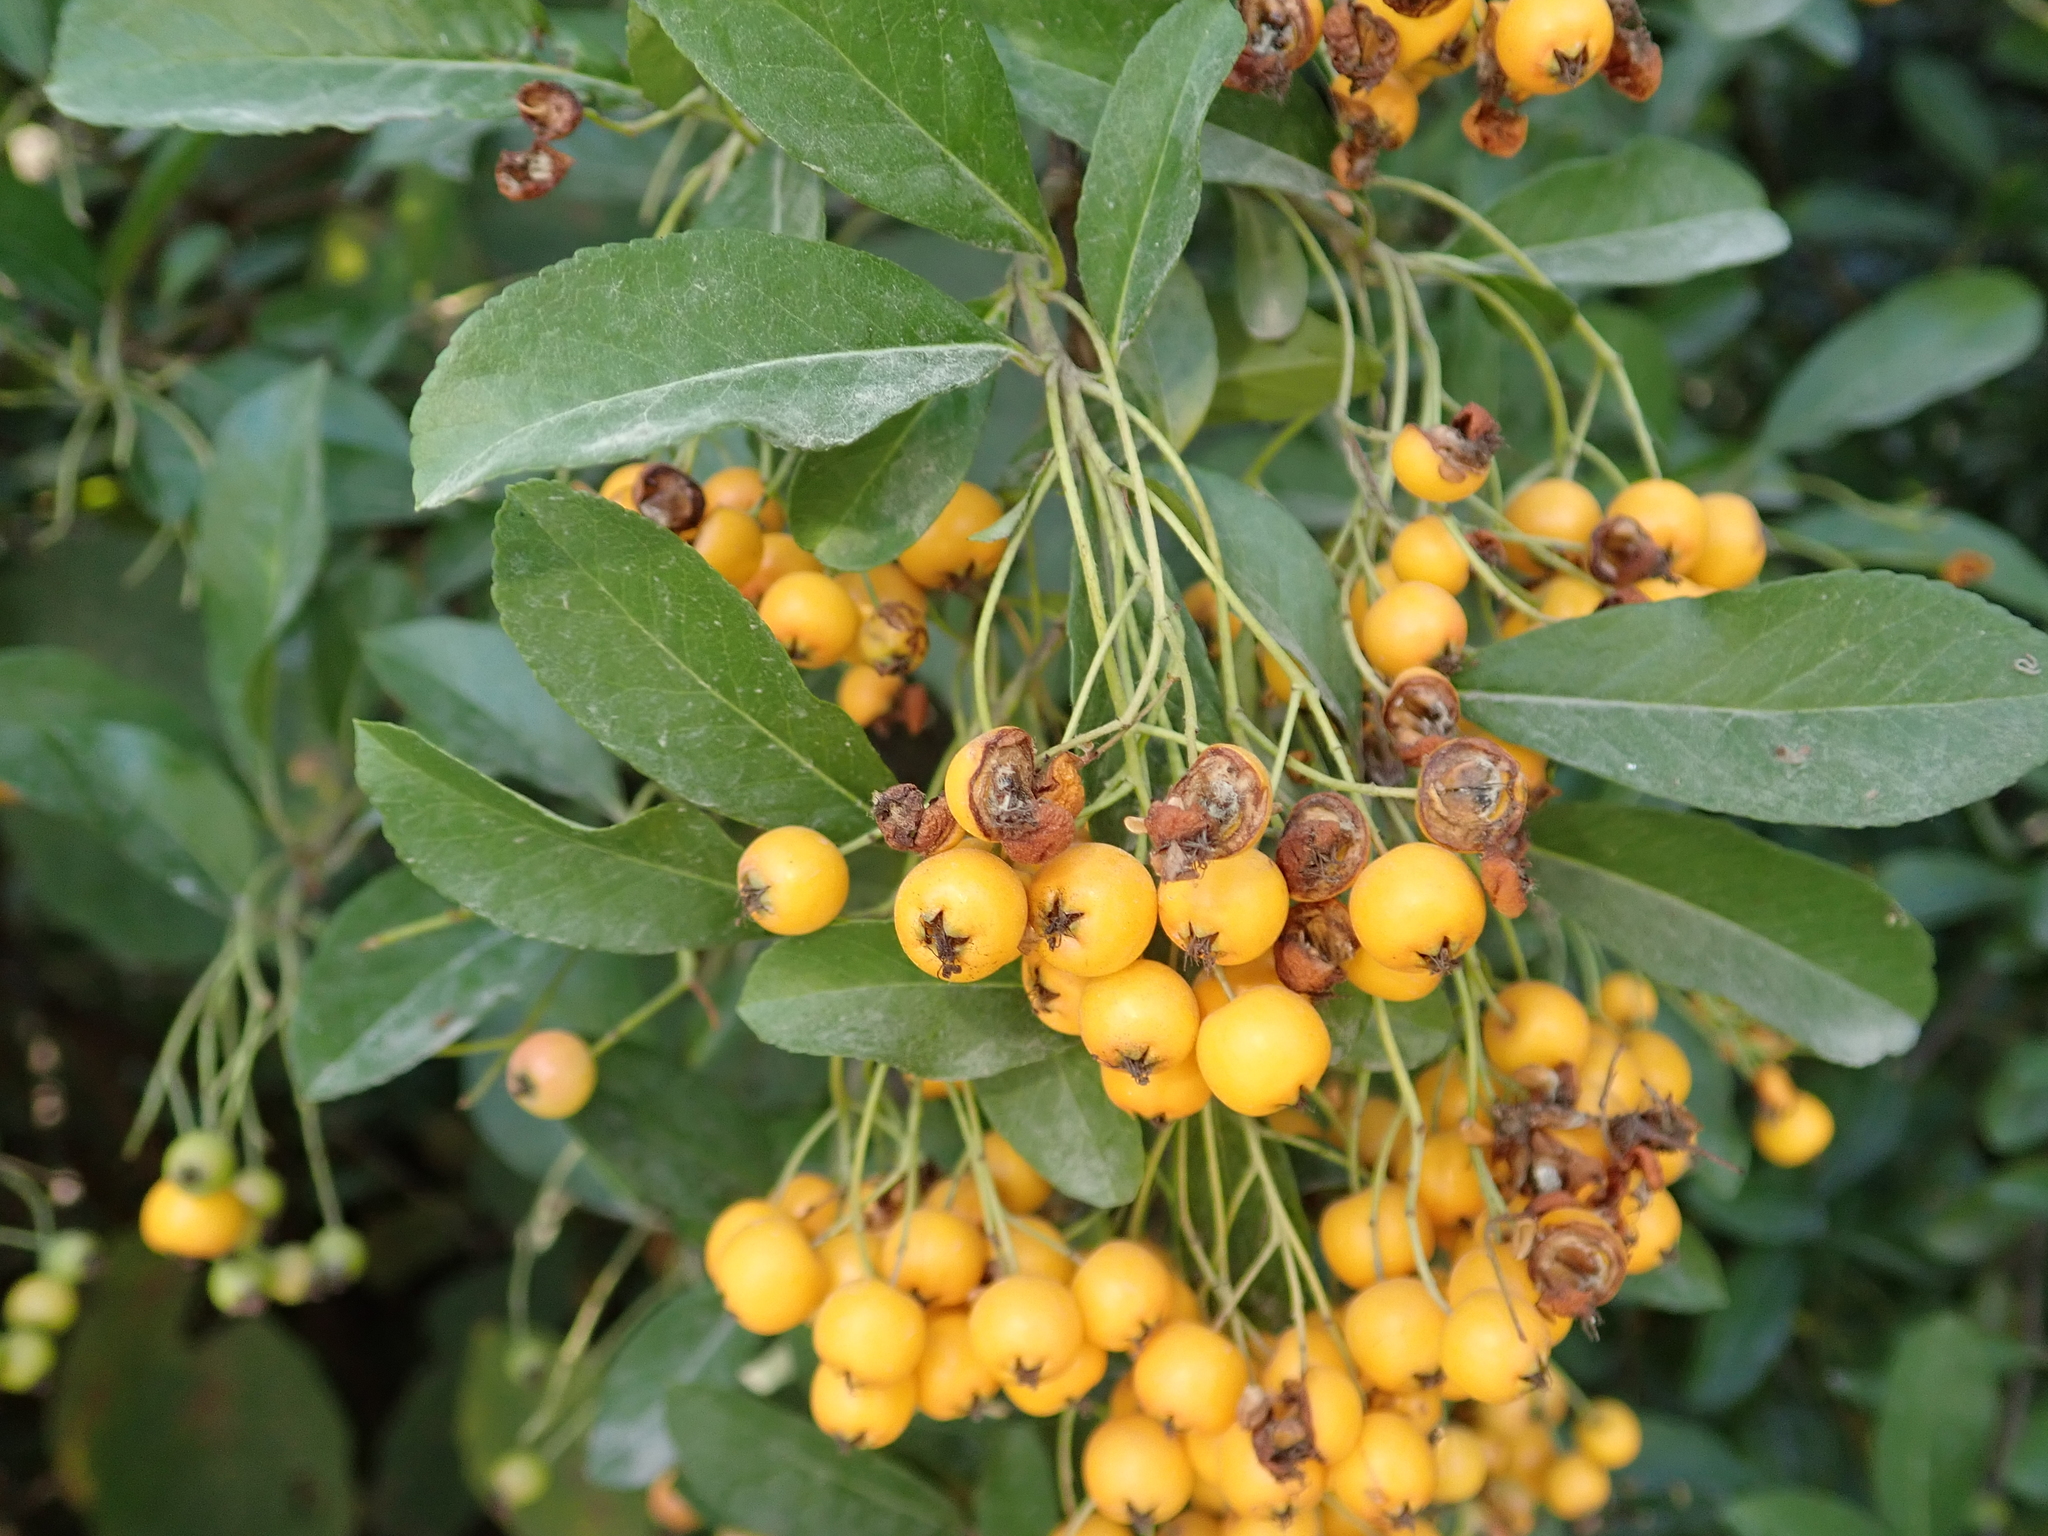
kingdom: Plantae
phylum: Tracheophyta
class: Magnoliopsida
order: Rosales
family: Rosaceae
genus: Pyracantha
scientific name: Pyracantha coccinea
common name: Firethorn
